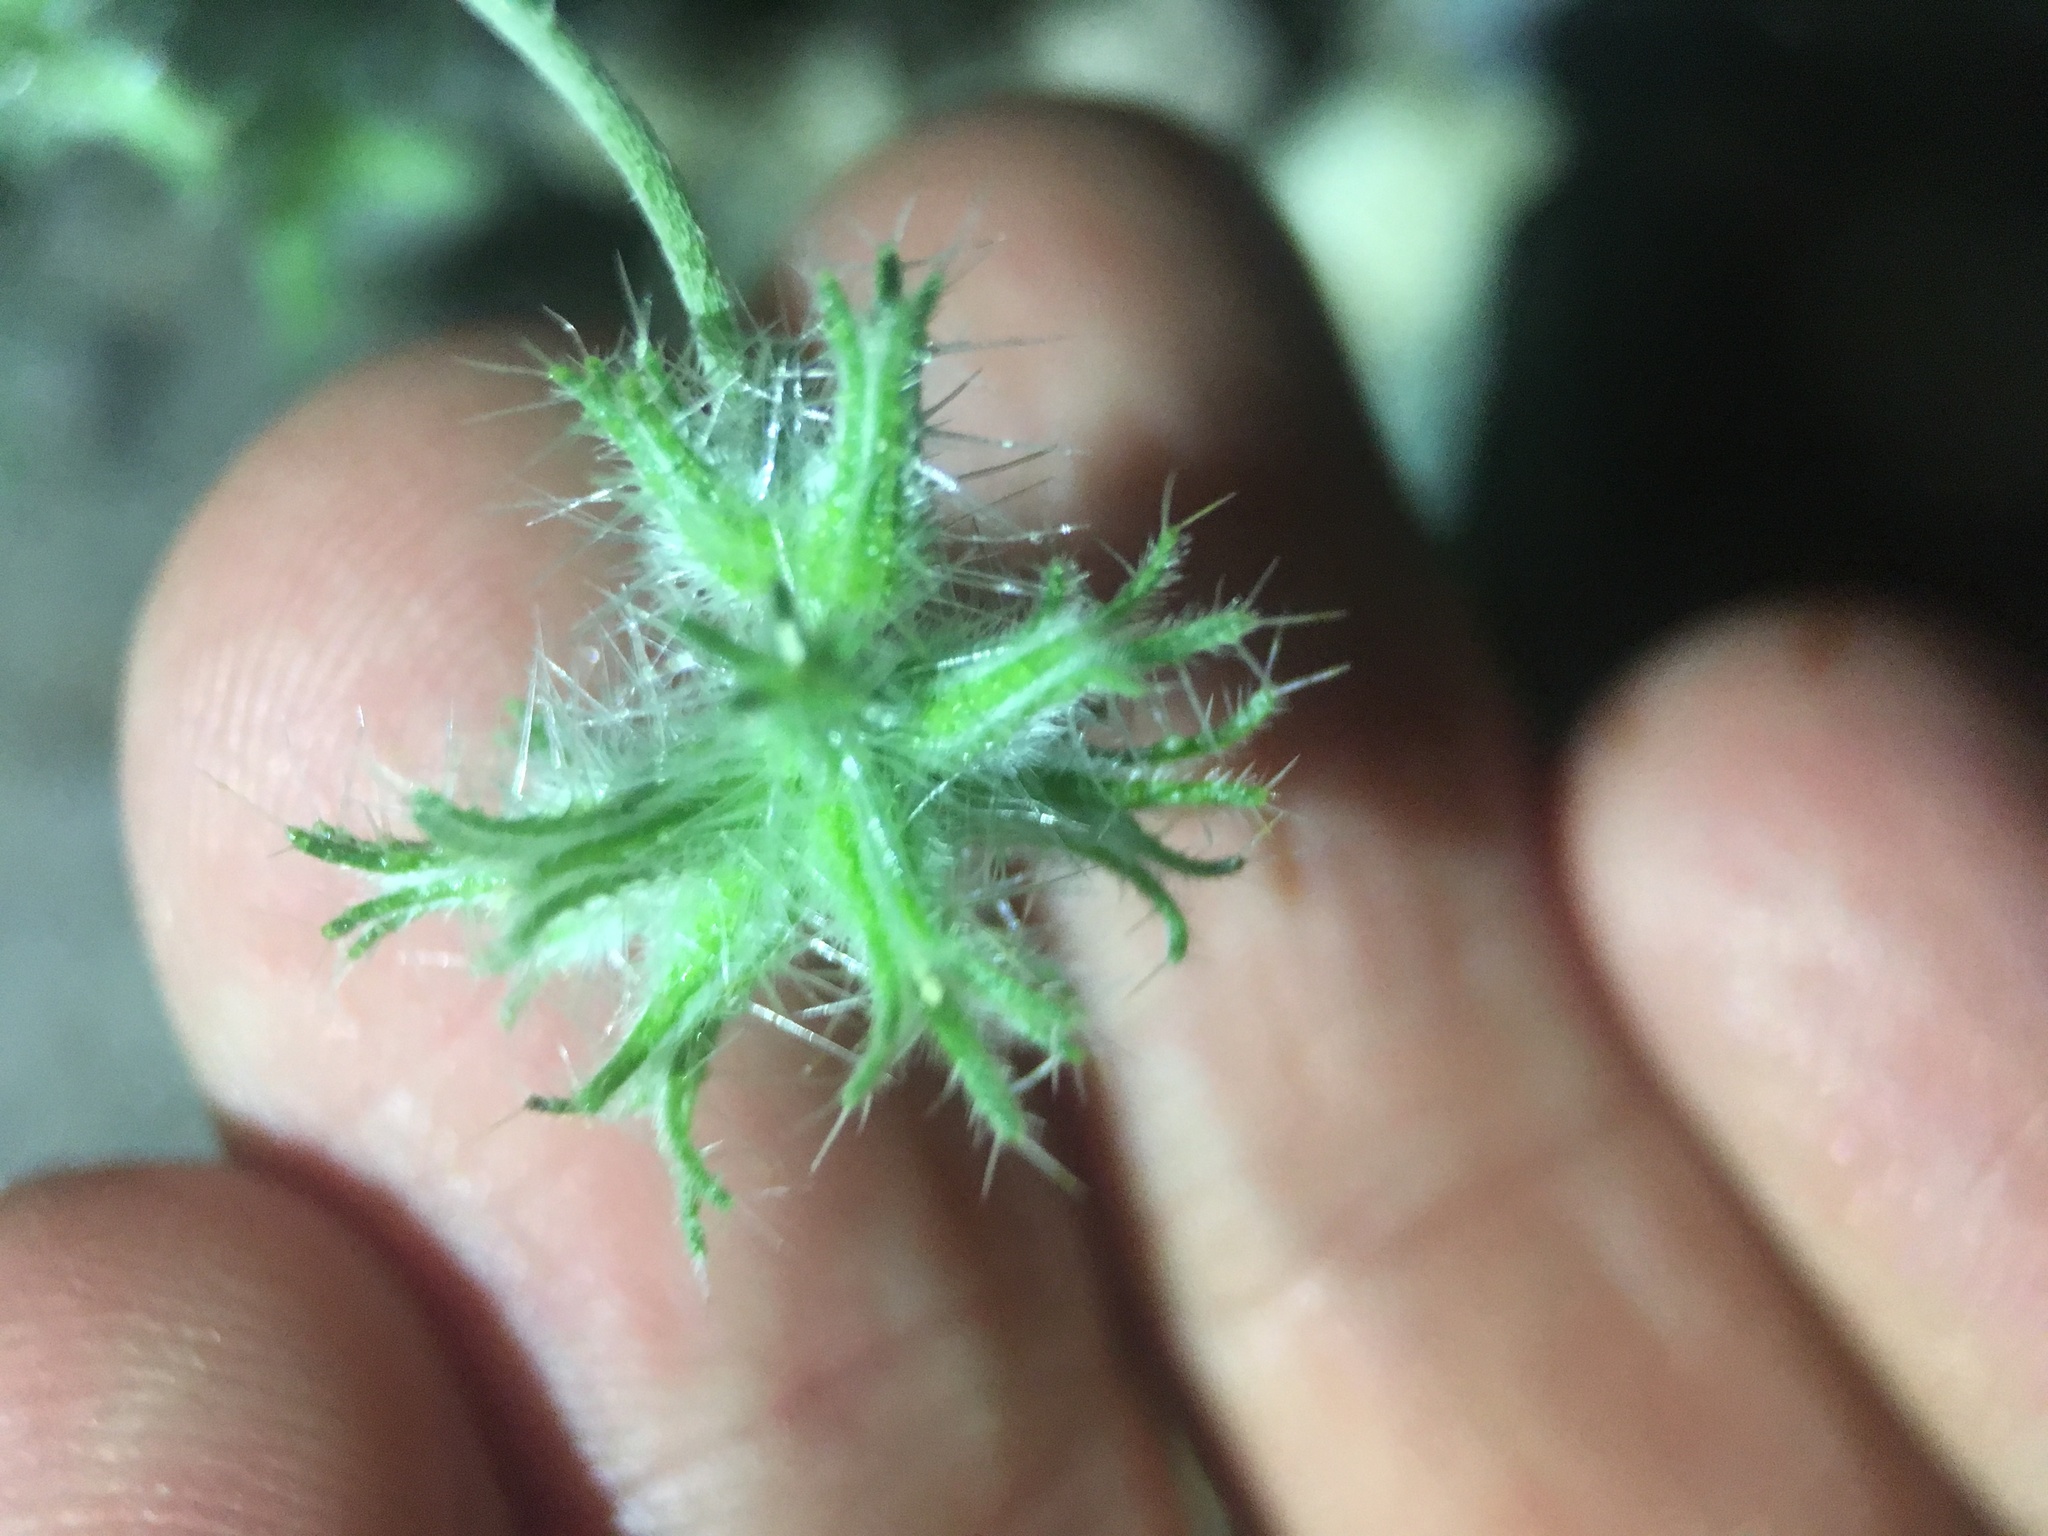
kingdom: Plantae
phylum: Tracheophyta
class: Magnoliopsida
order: Boraginales
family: Boraginaceae
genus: Cryptantha
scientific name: Cryptantha nevadensis
